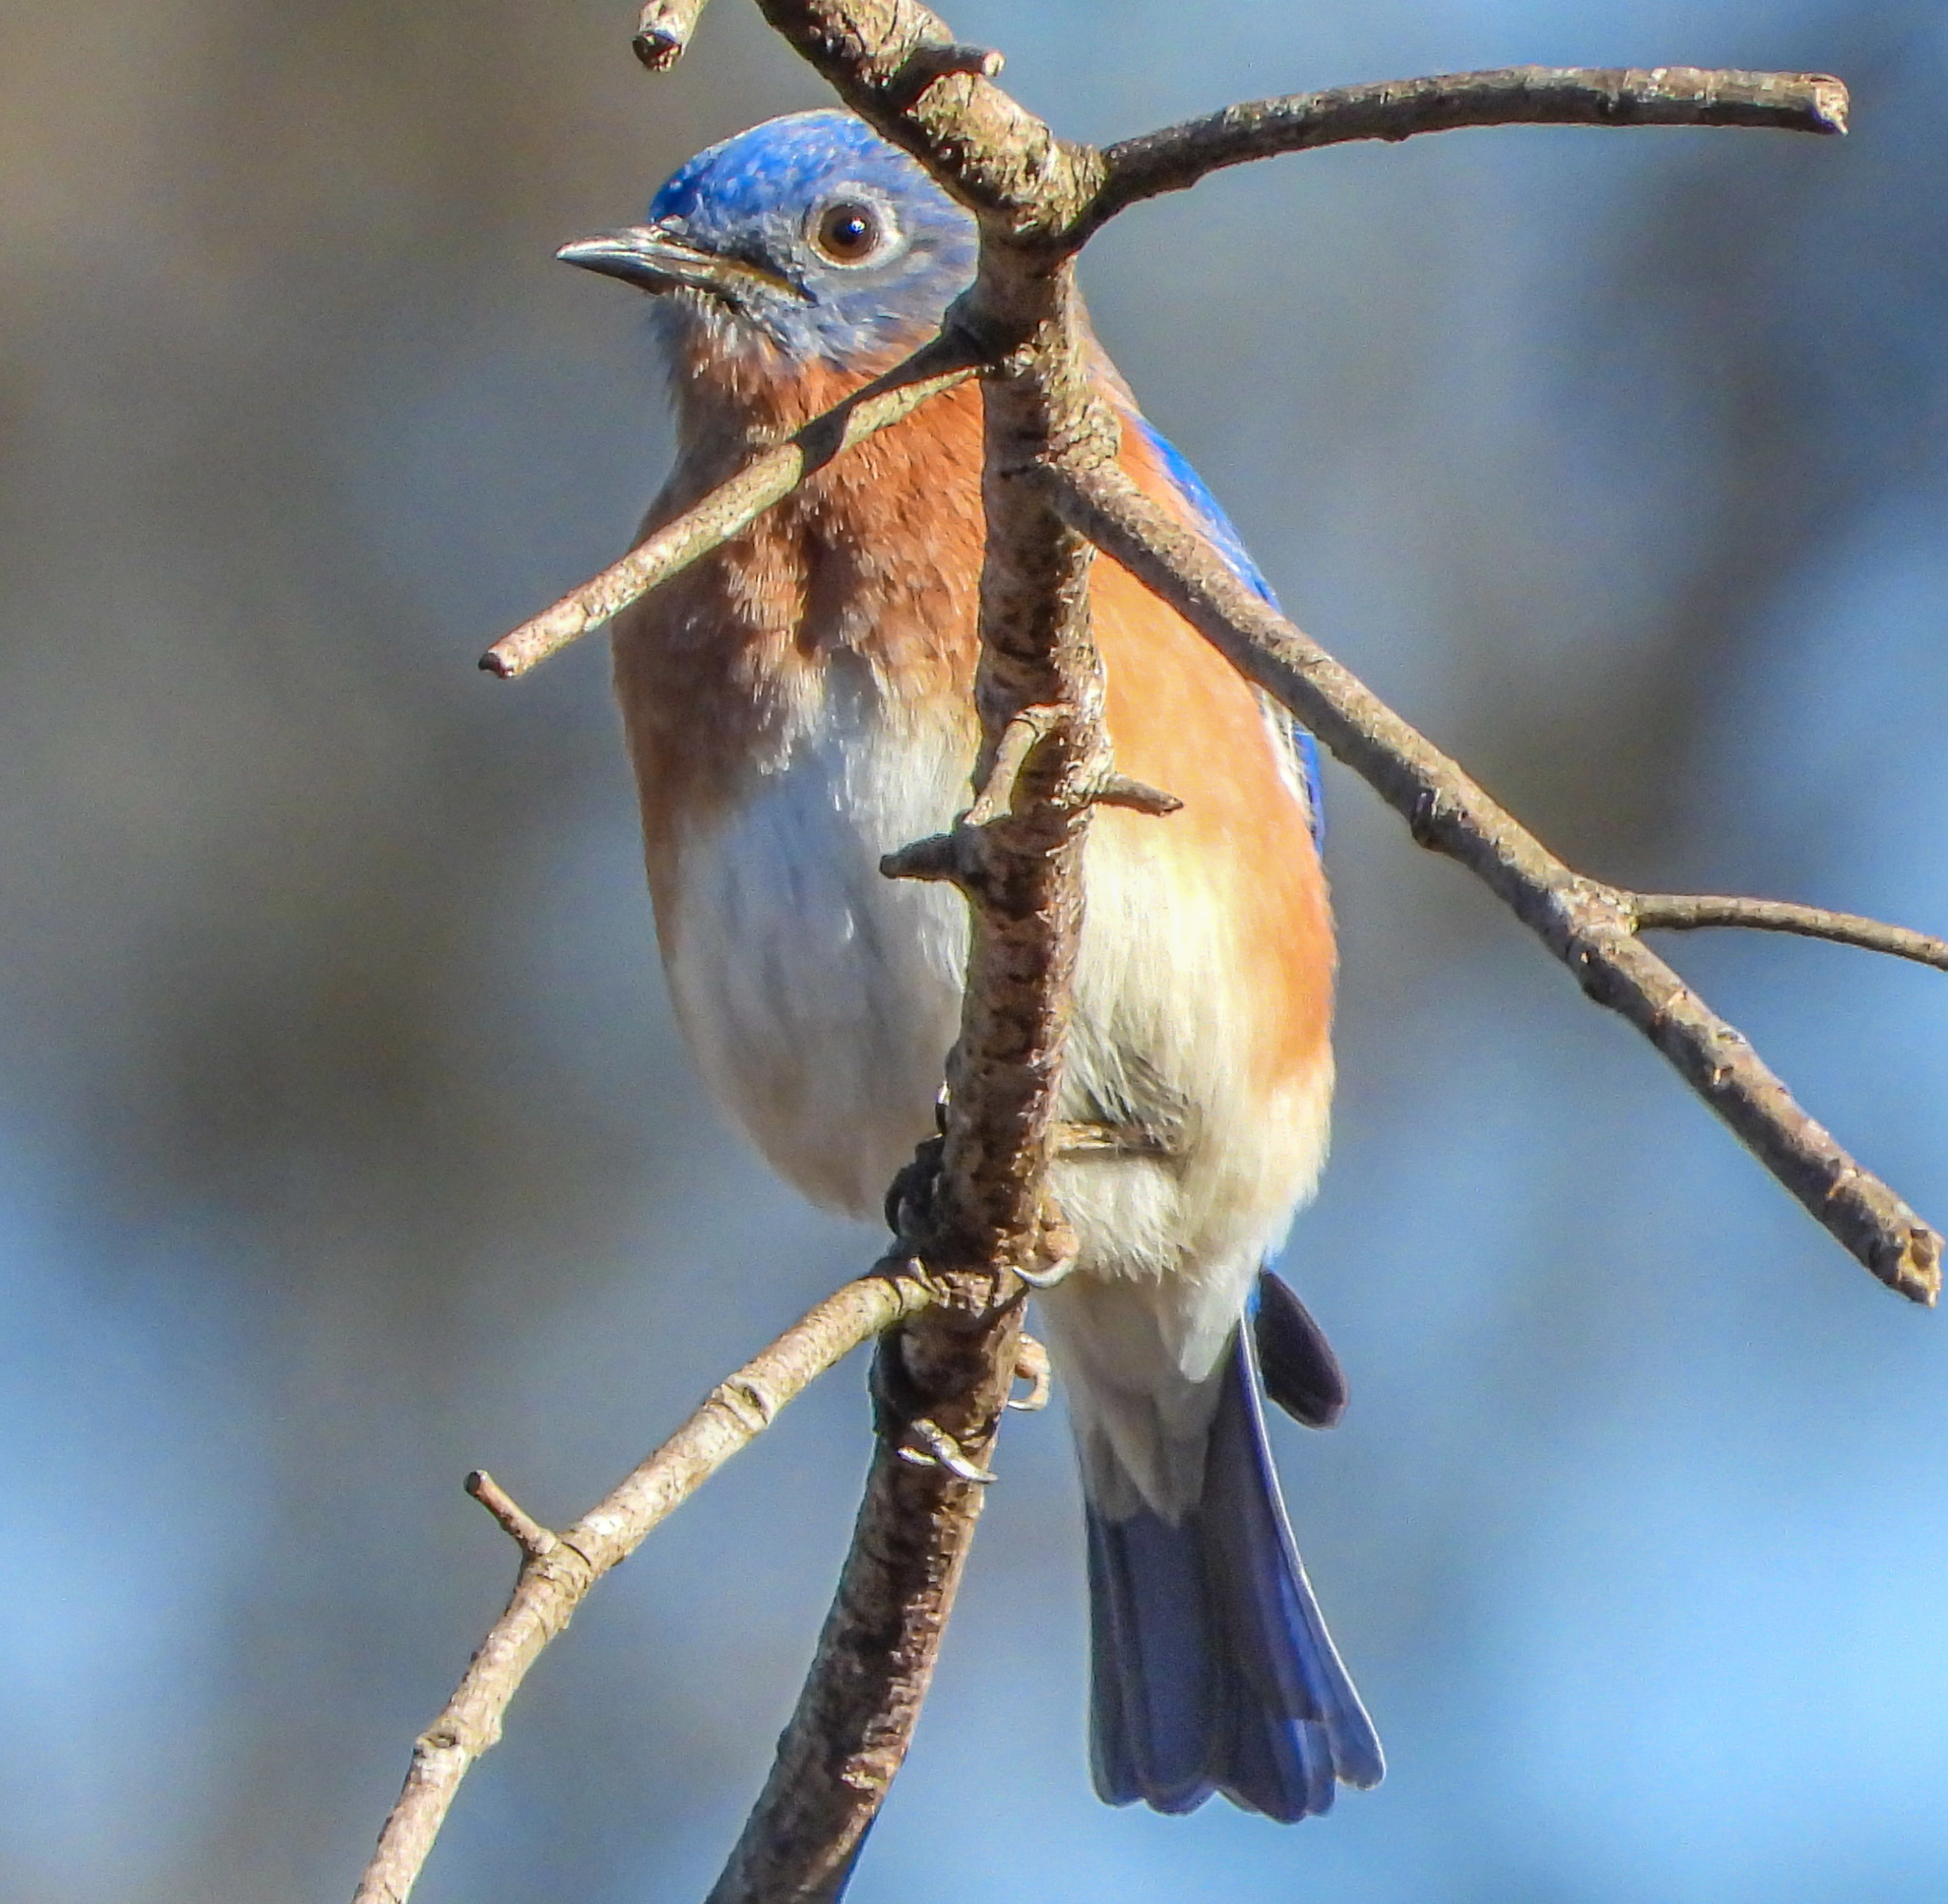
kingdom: Animalia
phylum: Chordata
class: Aves
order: Passeriformes
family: Turdidae
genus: Sialia
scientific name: Sialia sialis
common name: Eastern bluebird
